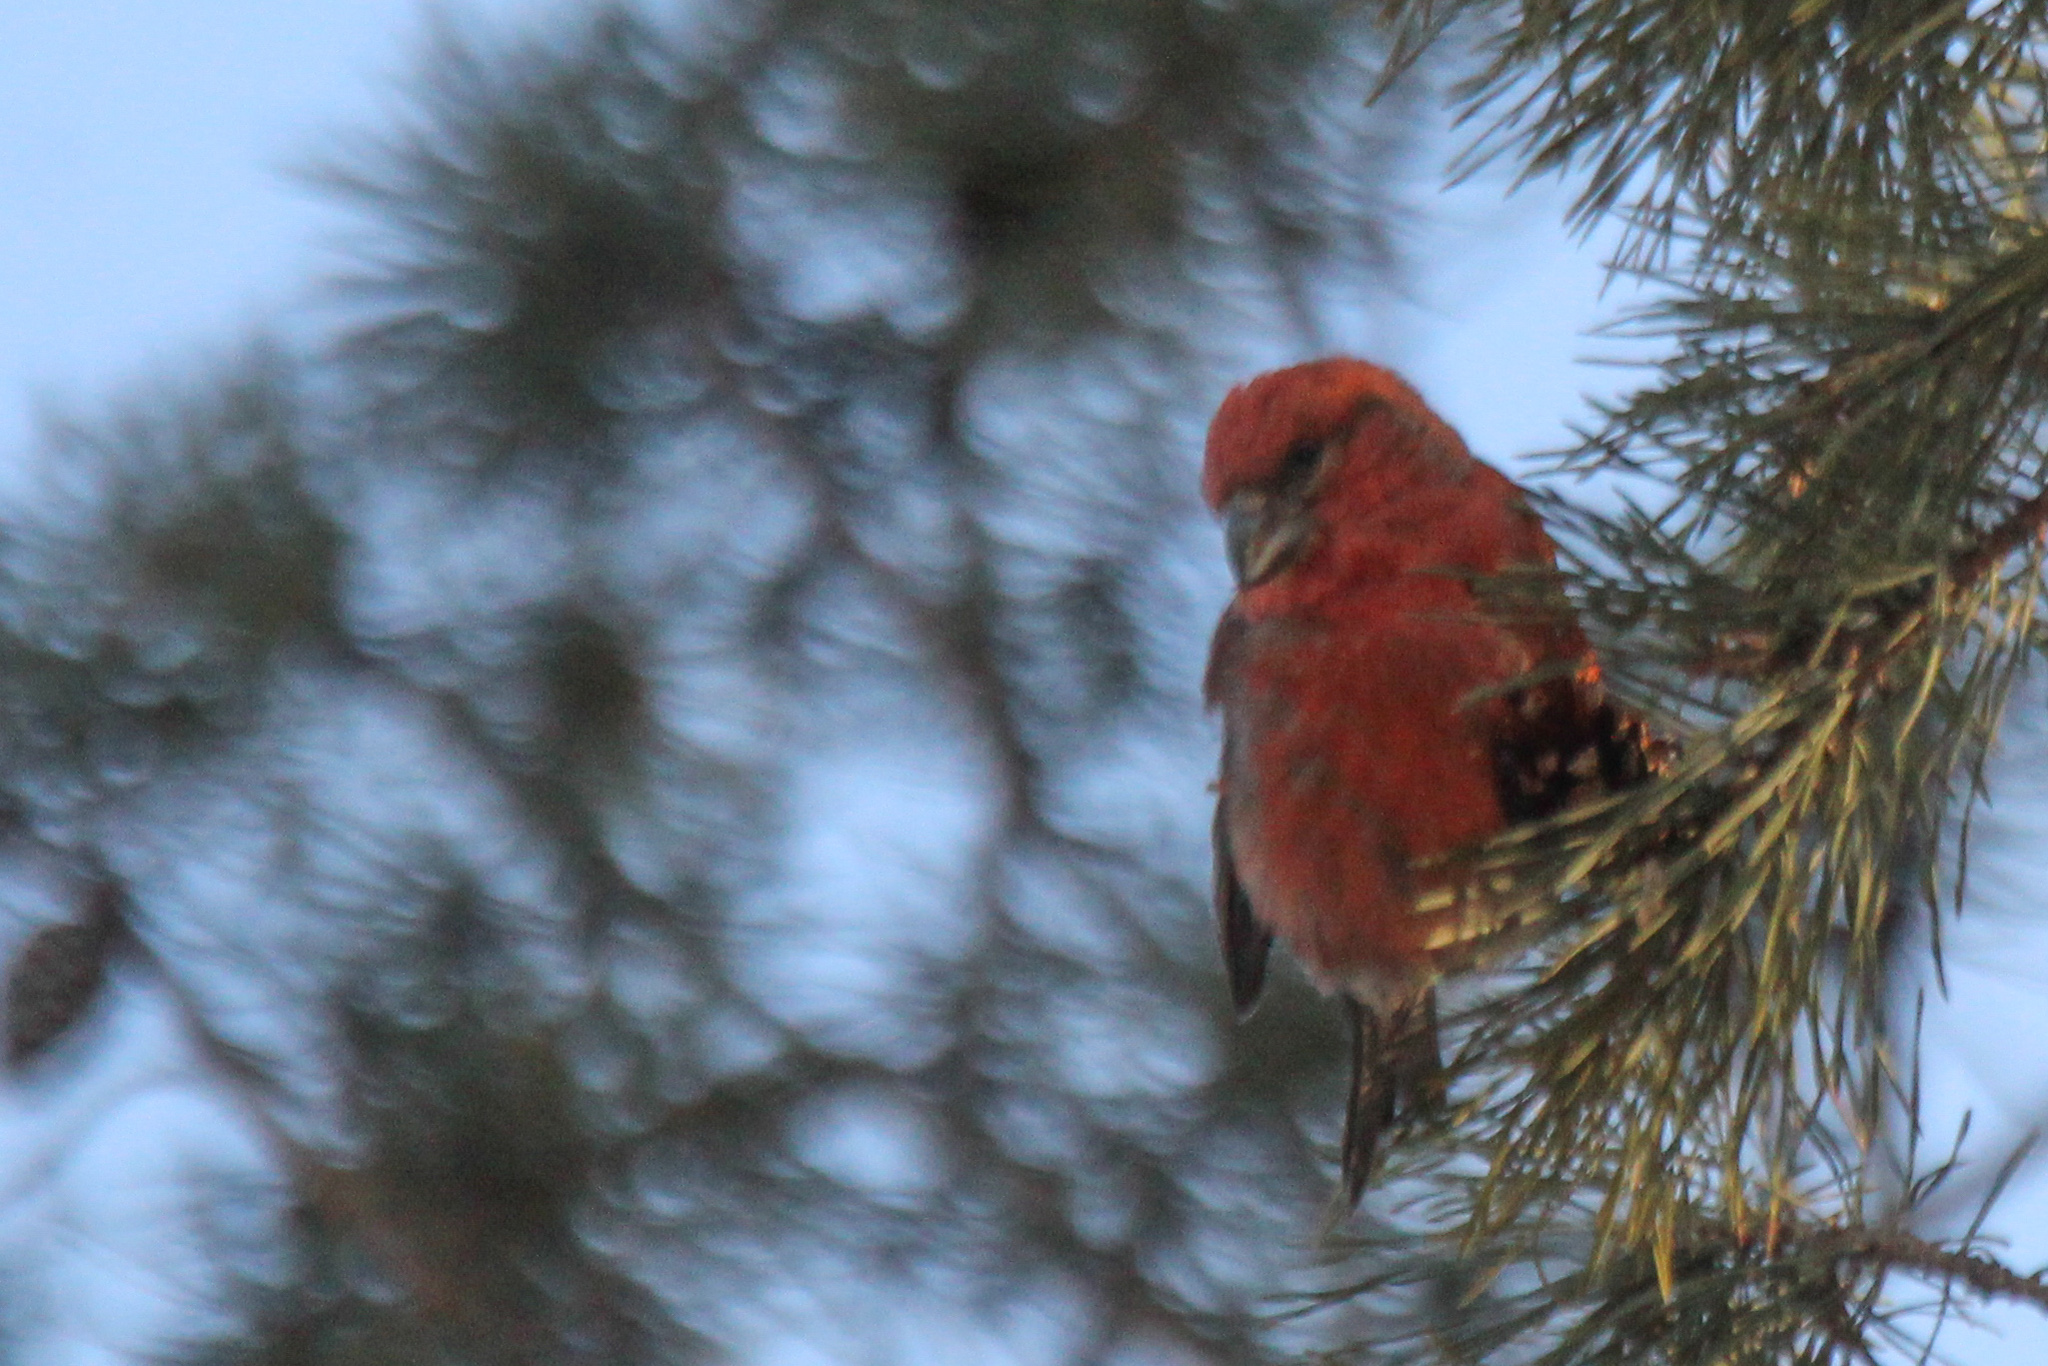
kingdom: Animalia
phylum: Chordata
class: Aves
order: Passeriformes
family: Fringillidae
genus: Loxia
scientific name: Loxia curvirostra
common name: Red crossbill
